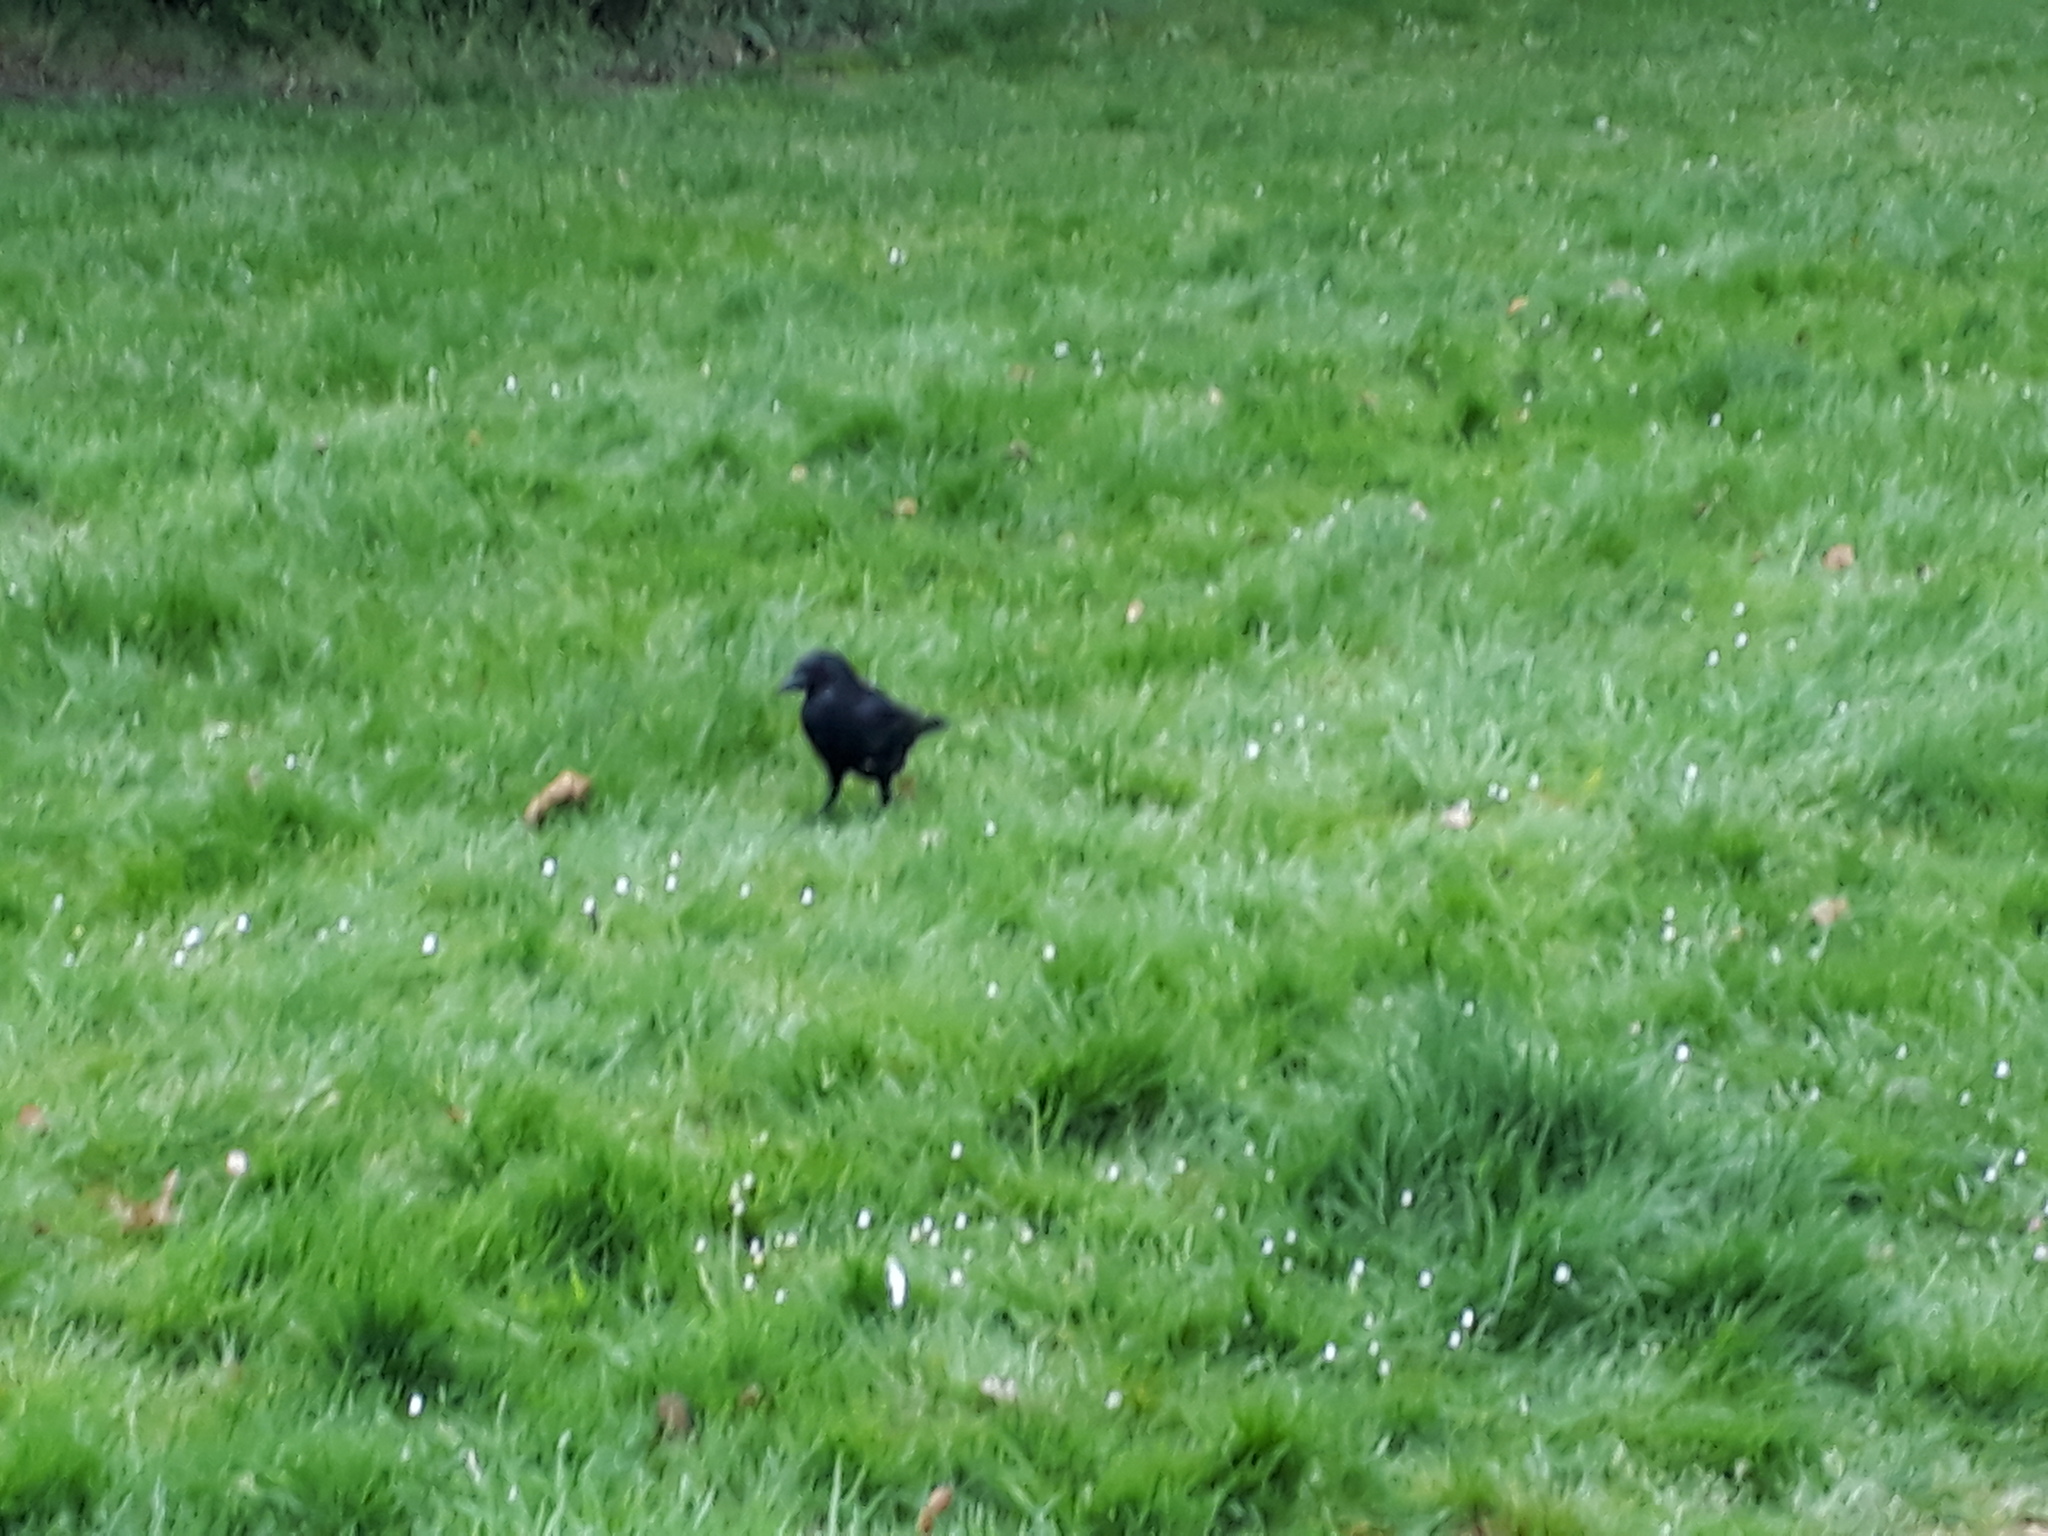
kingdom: Animalia
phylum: Chordata
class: Aves
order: Passeriformes
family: Corvidae
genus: Corvus
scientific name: Corvus corone
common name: Carrion crow
